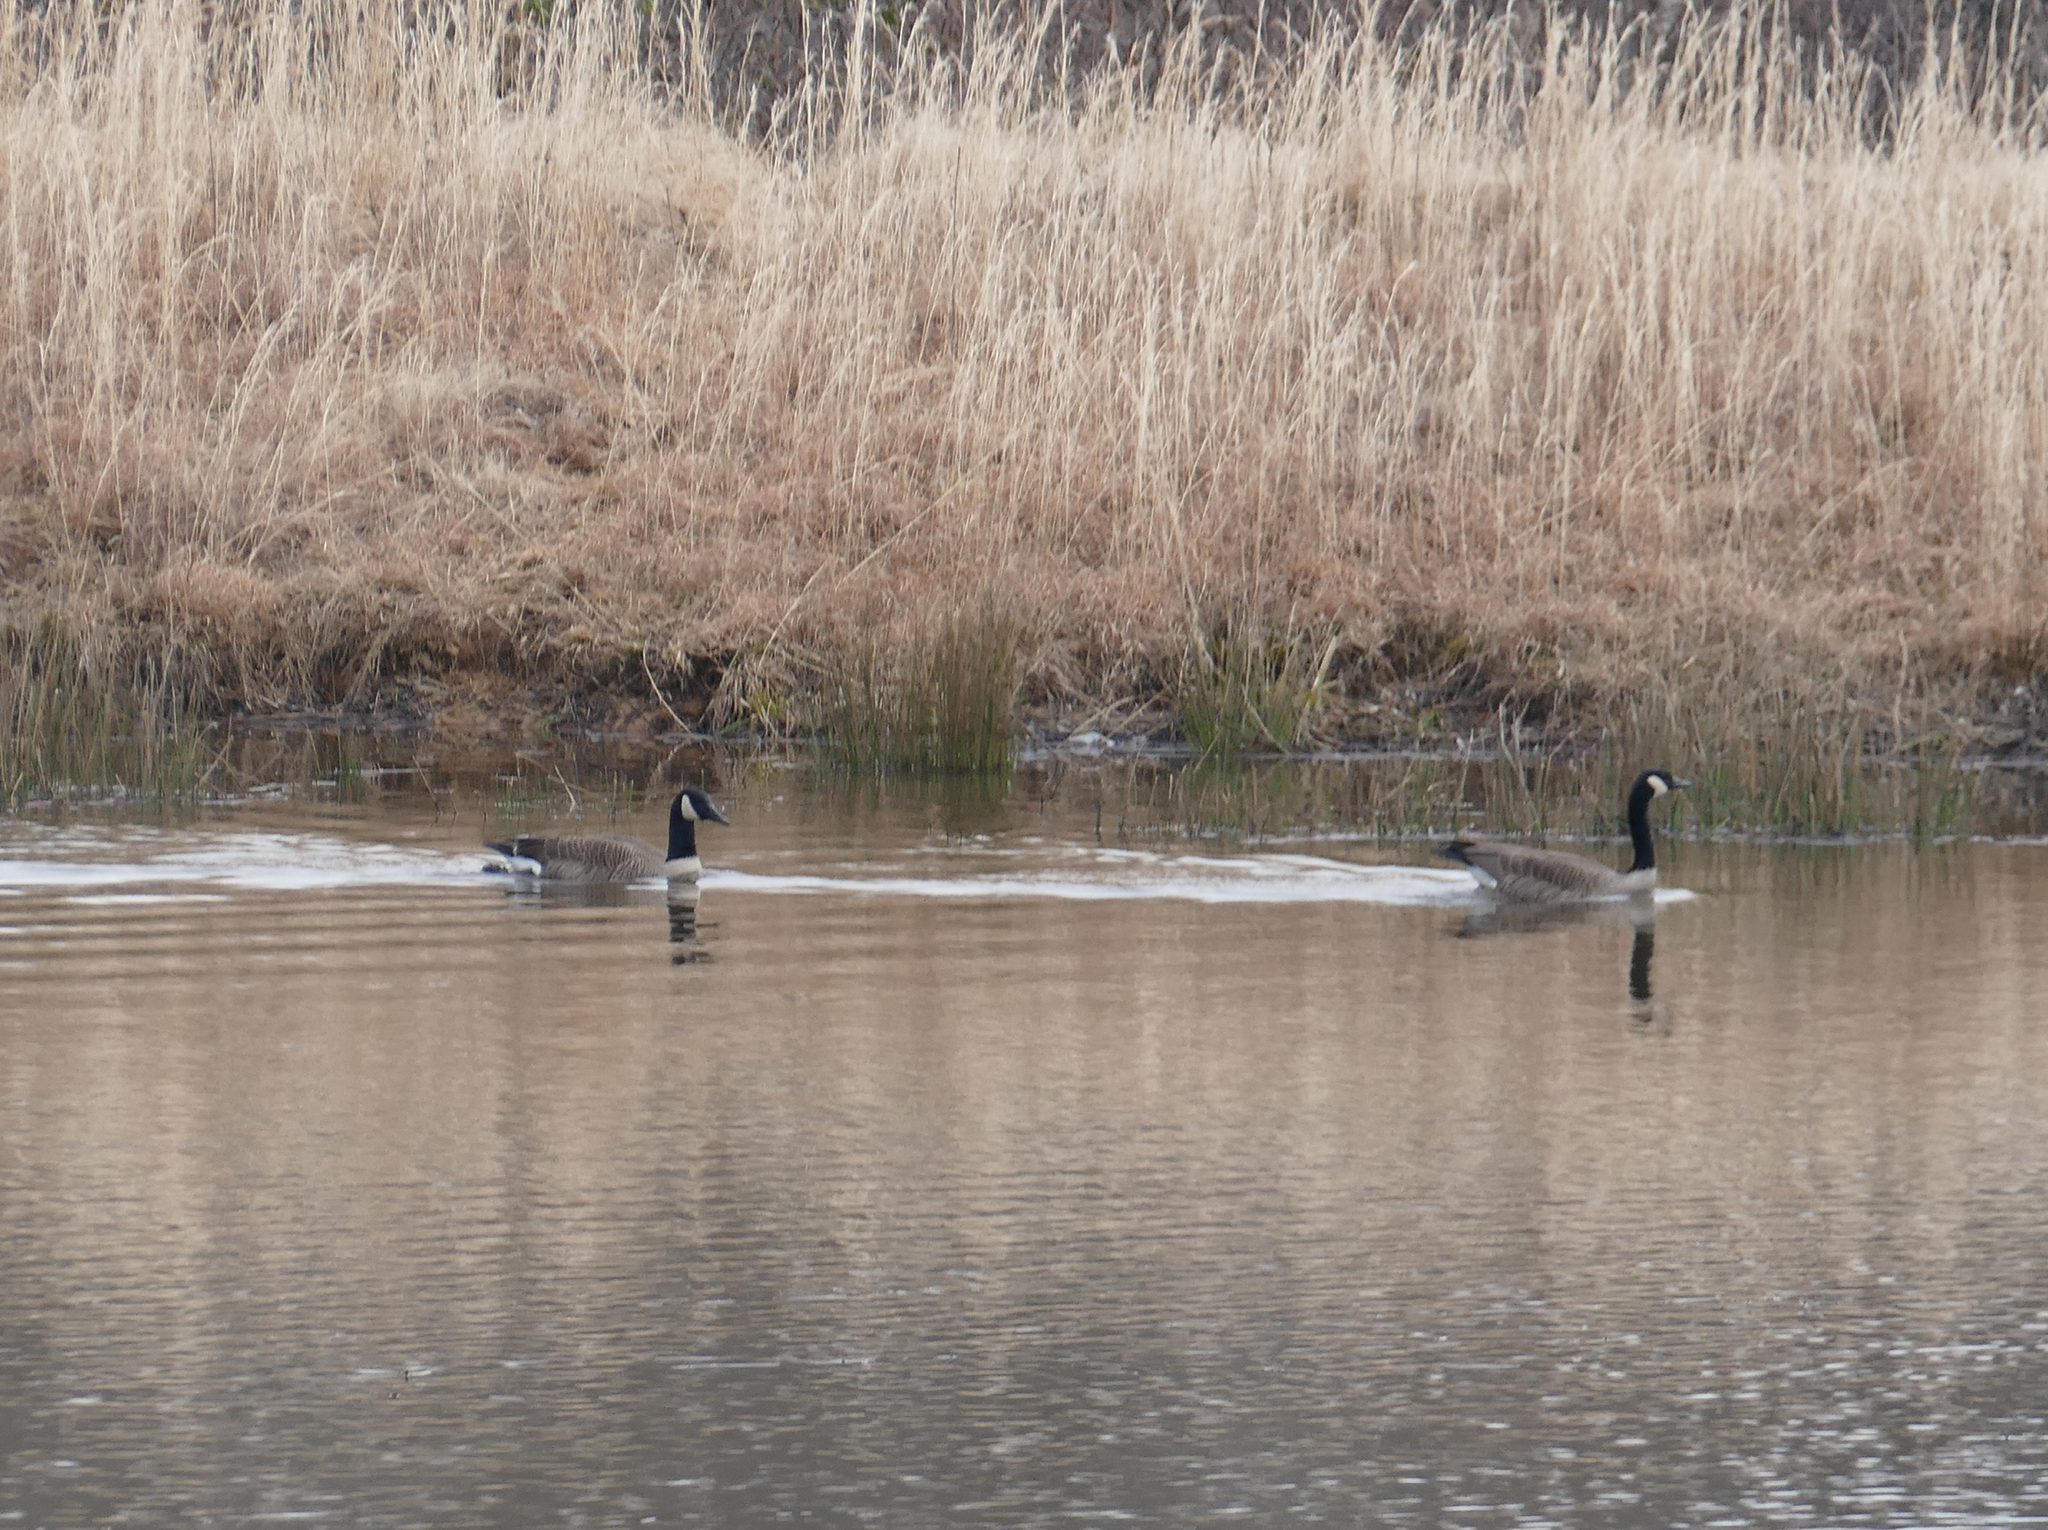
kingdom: Animalia
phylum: Chordata
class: Aves
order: Anseriformes
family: Anatidae
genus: Branta
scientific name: Branta canadensis
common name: Canada goose
